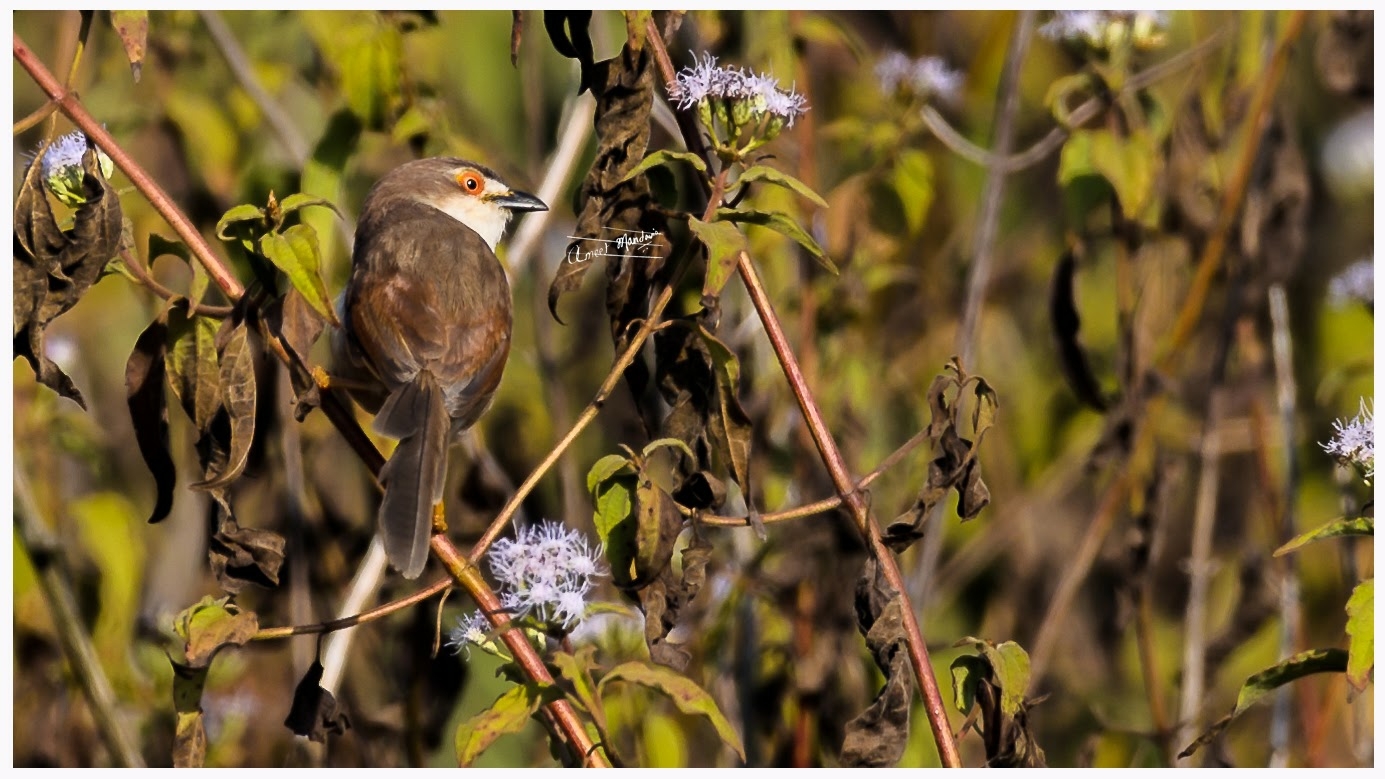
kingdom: Animalia
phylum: Chordata
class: Aves
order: Passeriformes
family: Sylviidae
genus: Chrysomma
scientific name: Chrysomma sinense
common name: Yellow-eyed babbler
